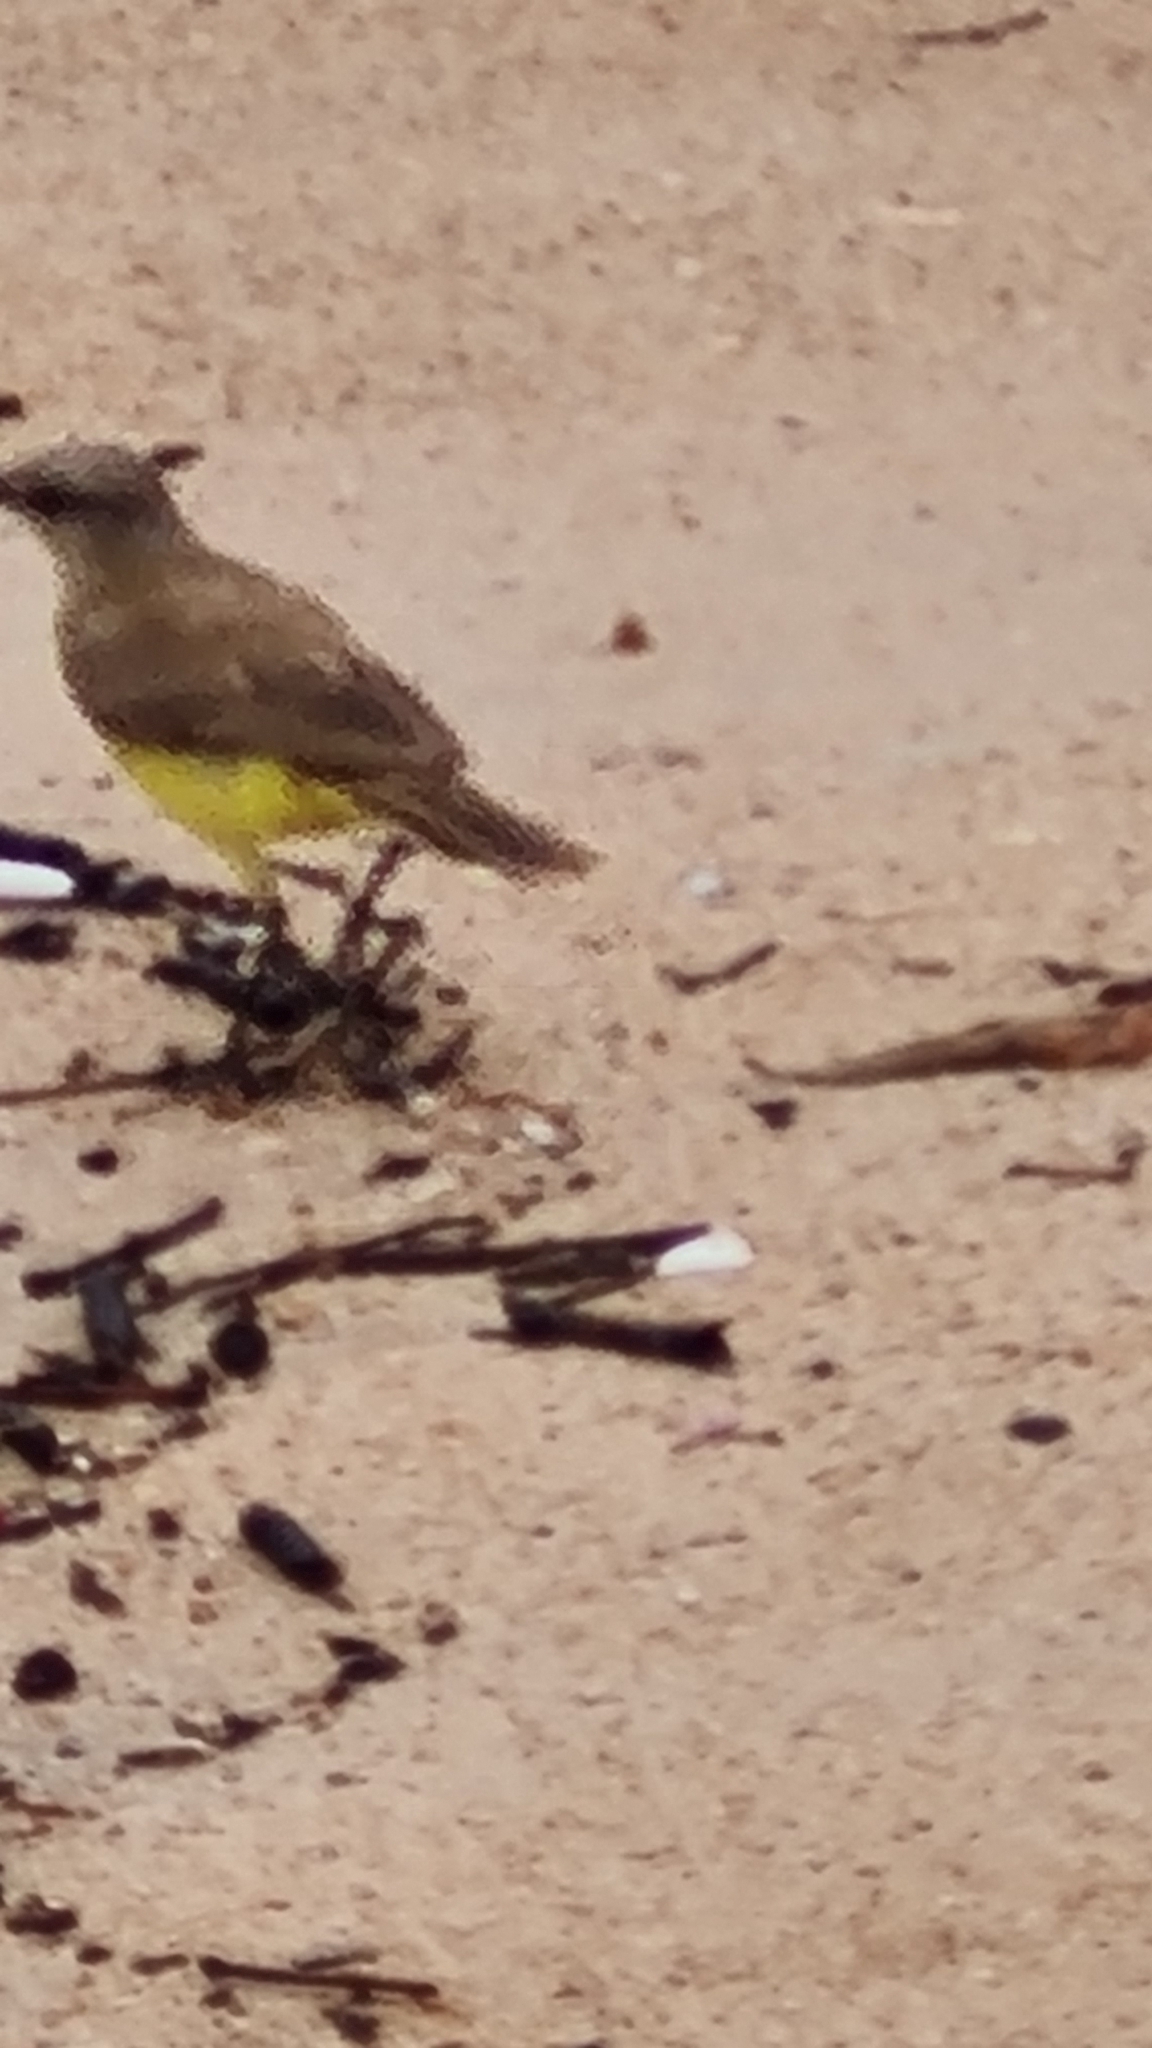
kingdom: Animalia
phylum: Chordata
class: Aves
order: Passeriformes
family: Tyrannidae
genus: Machetornis
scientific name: Machetornis rixosa
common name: Cattle tyrant
